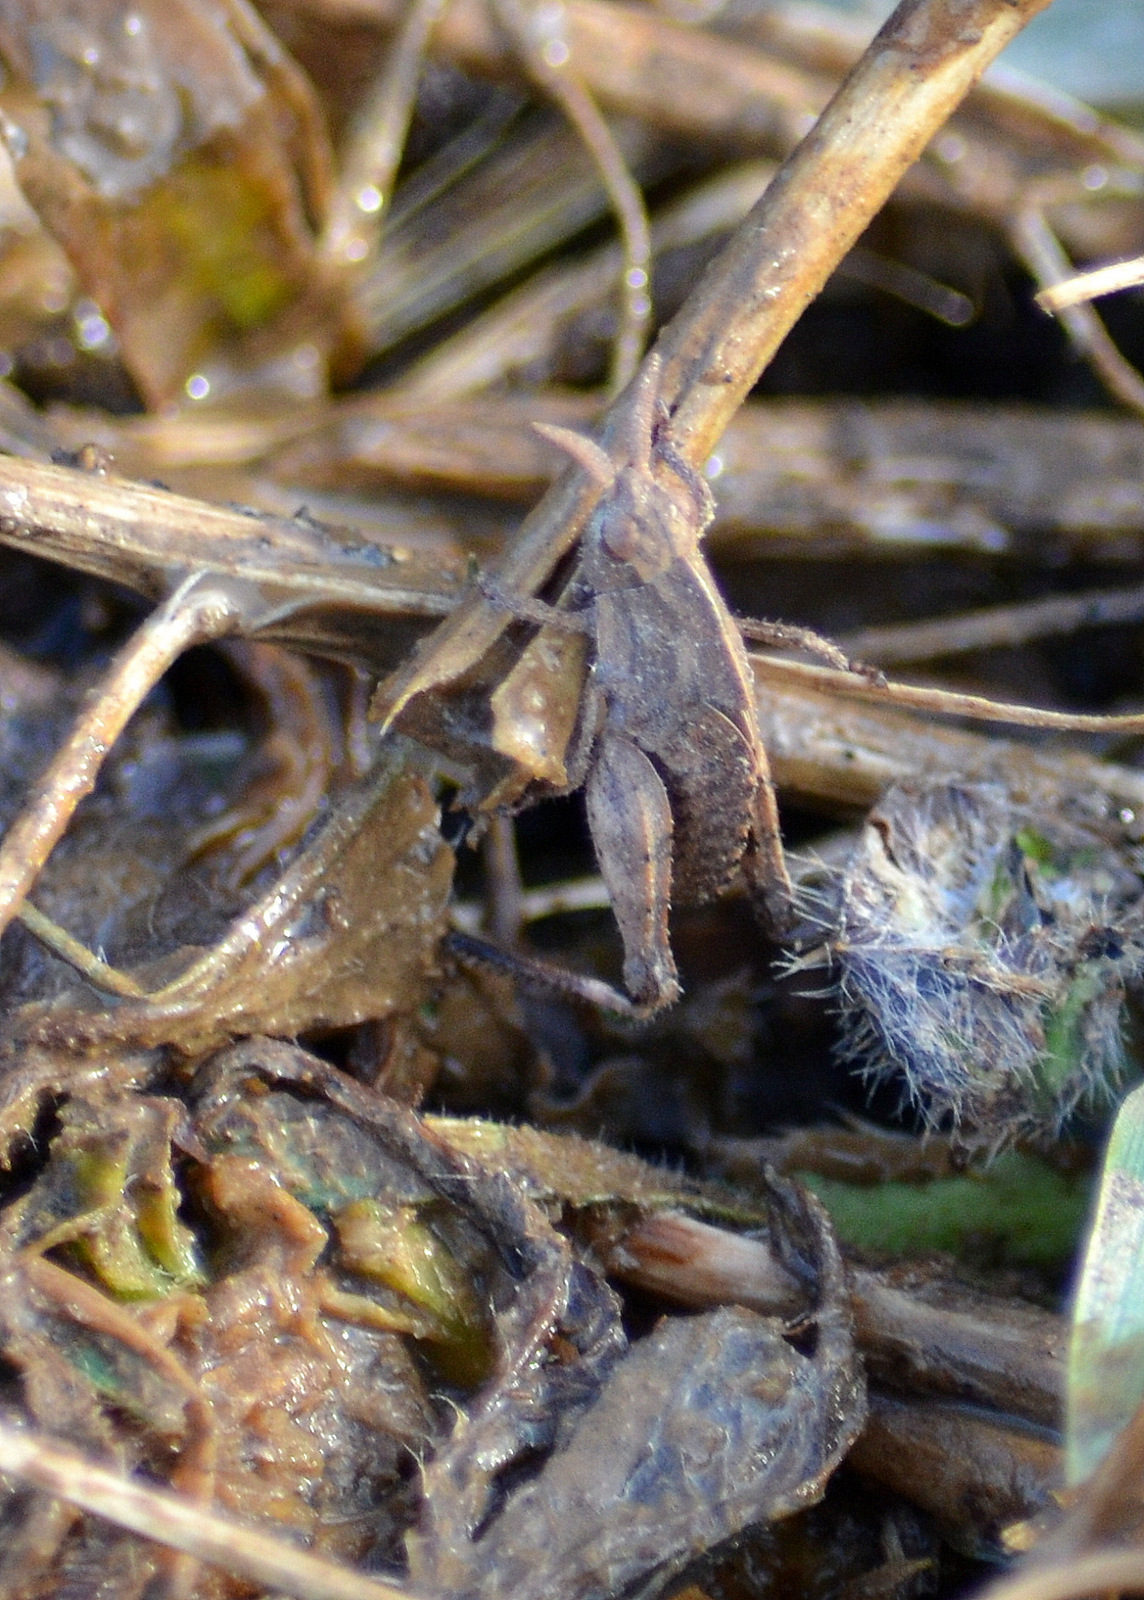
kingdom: Animalia
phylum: Arthropoda
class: Insecta
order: Orthoptera
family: Acrididae
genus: Chortophaga
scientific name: Chortophaga viridifasciata
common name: Green-striped grasshopper
